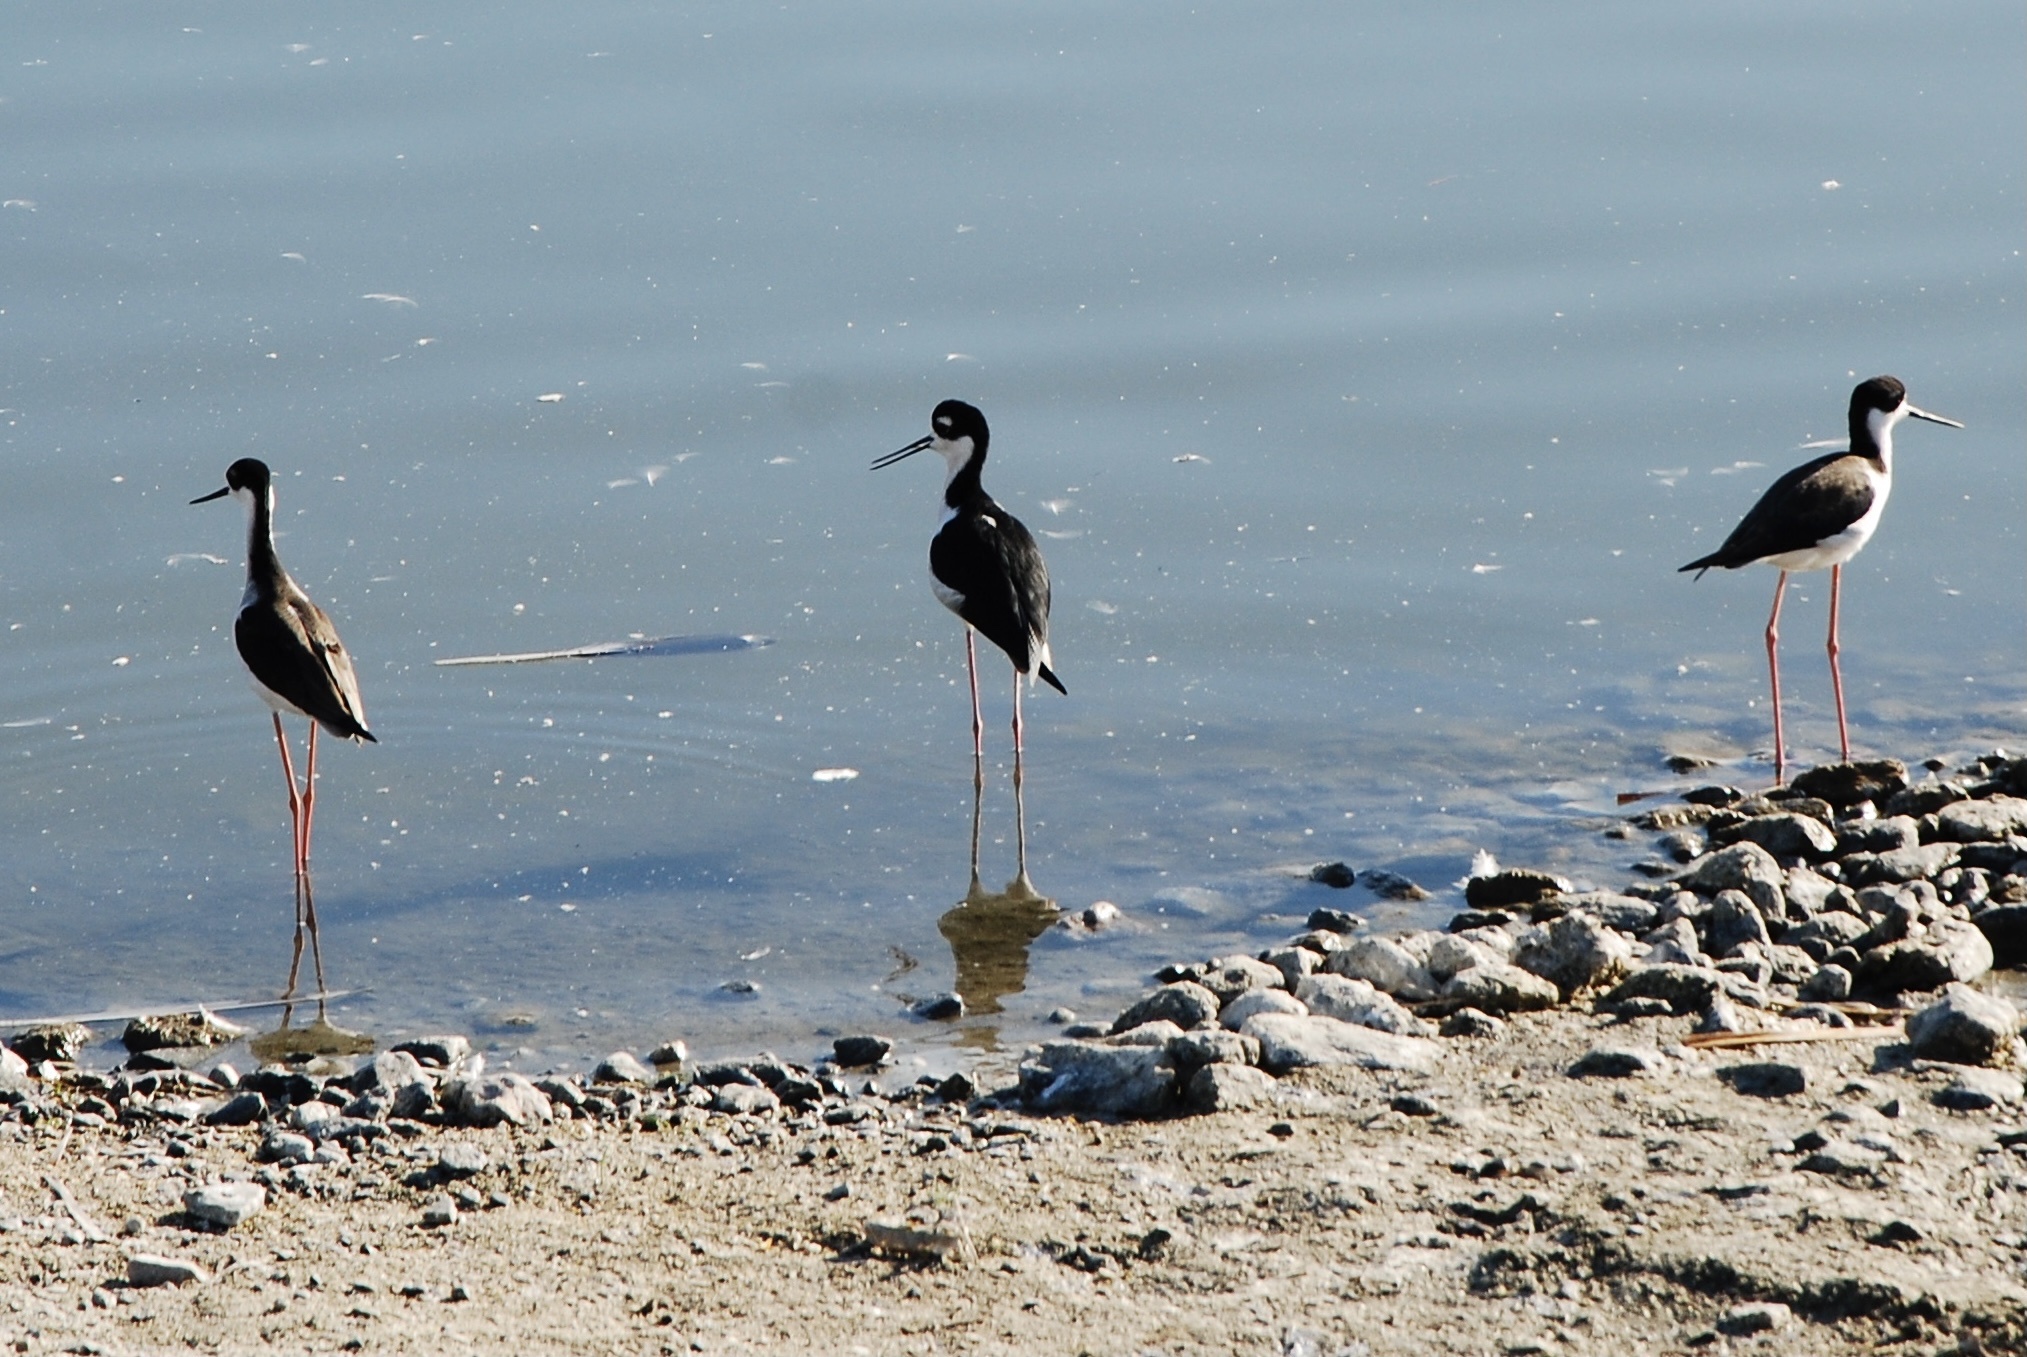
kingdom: Animalia
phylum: Chordata
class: Aves
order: Charadriiformes
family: Recurvirostridae
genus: Himantopus
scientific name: Himantopus mexicanus
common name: Black-necked stilt
